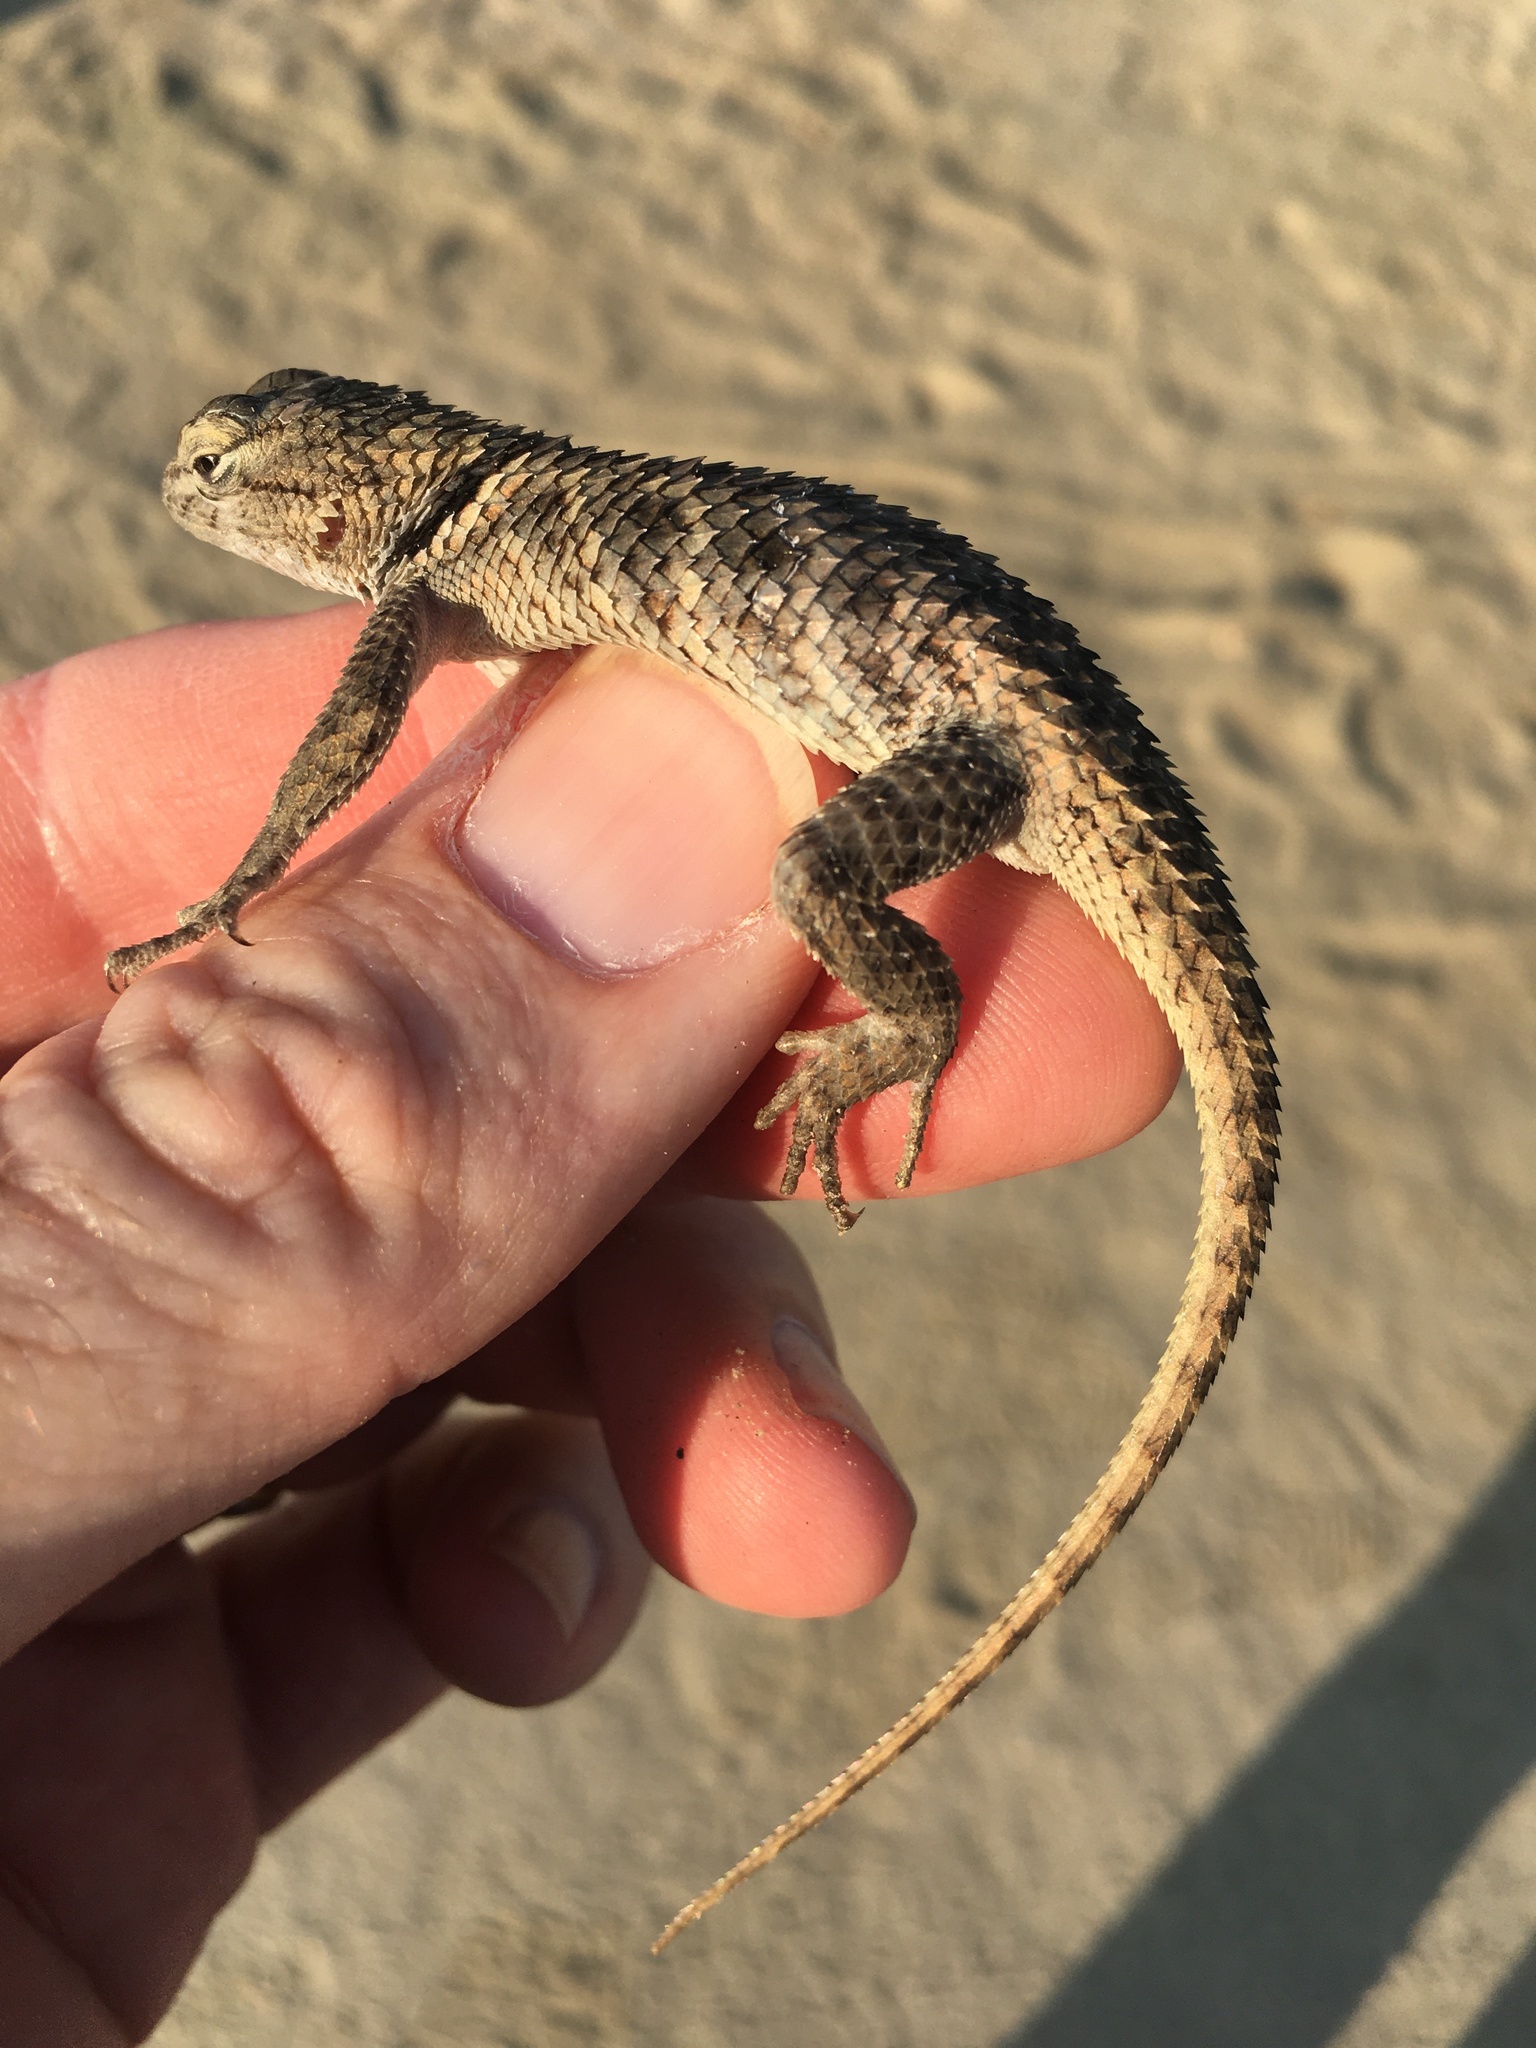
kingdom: Animalia
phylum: Chordata
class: Squamata
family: Phrynosomatidae
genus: Sceloporus
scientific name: Sceloporus magister
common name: Desert spiny lizard
